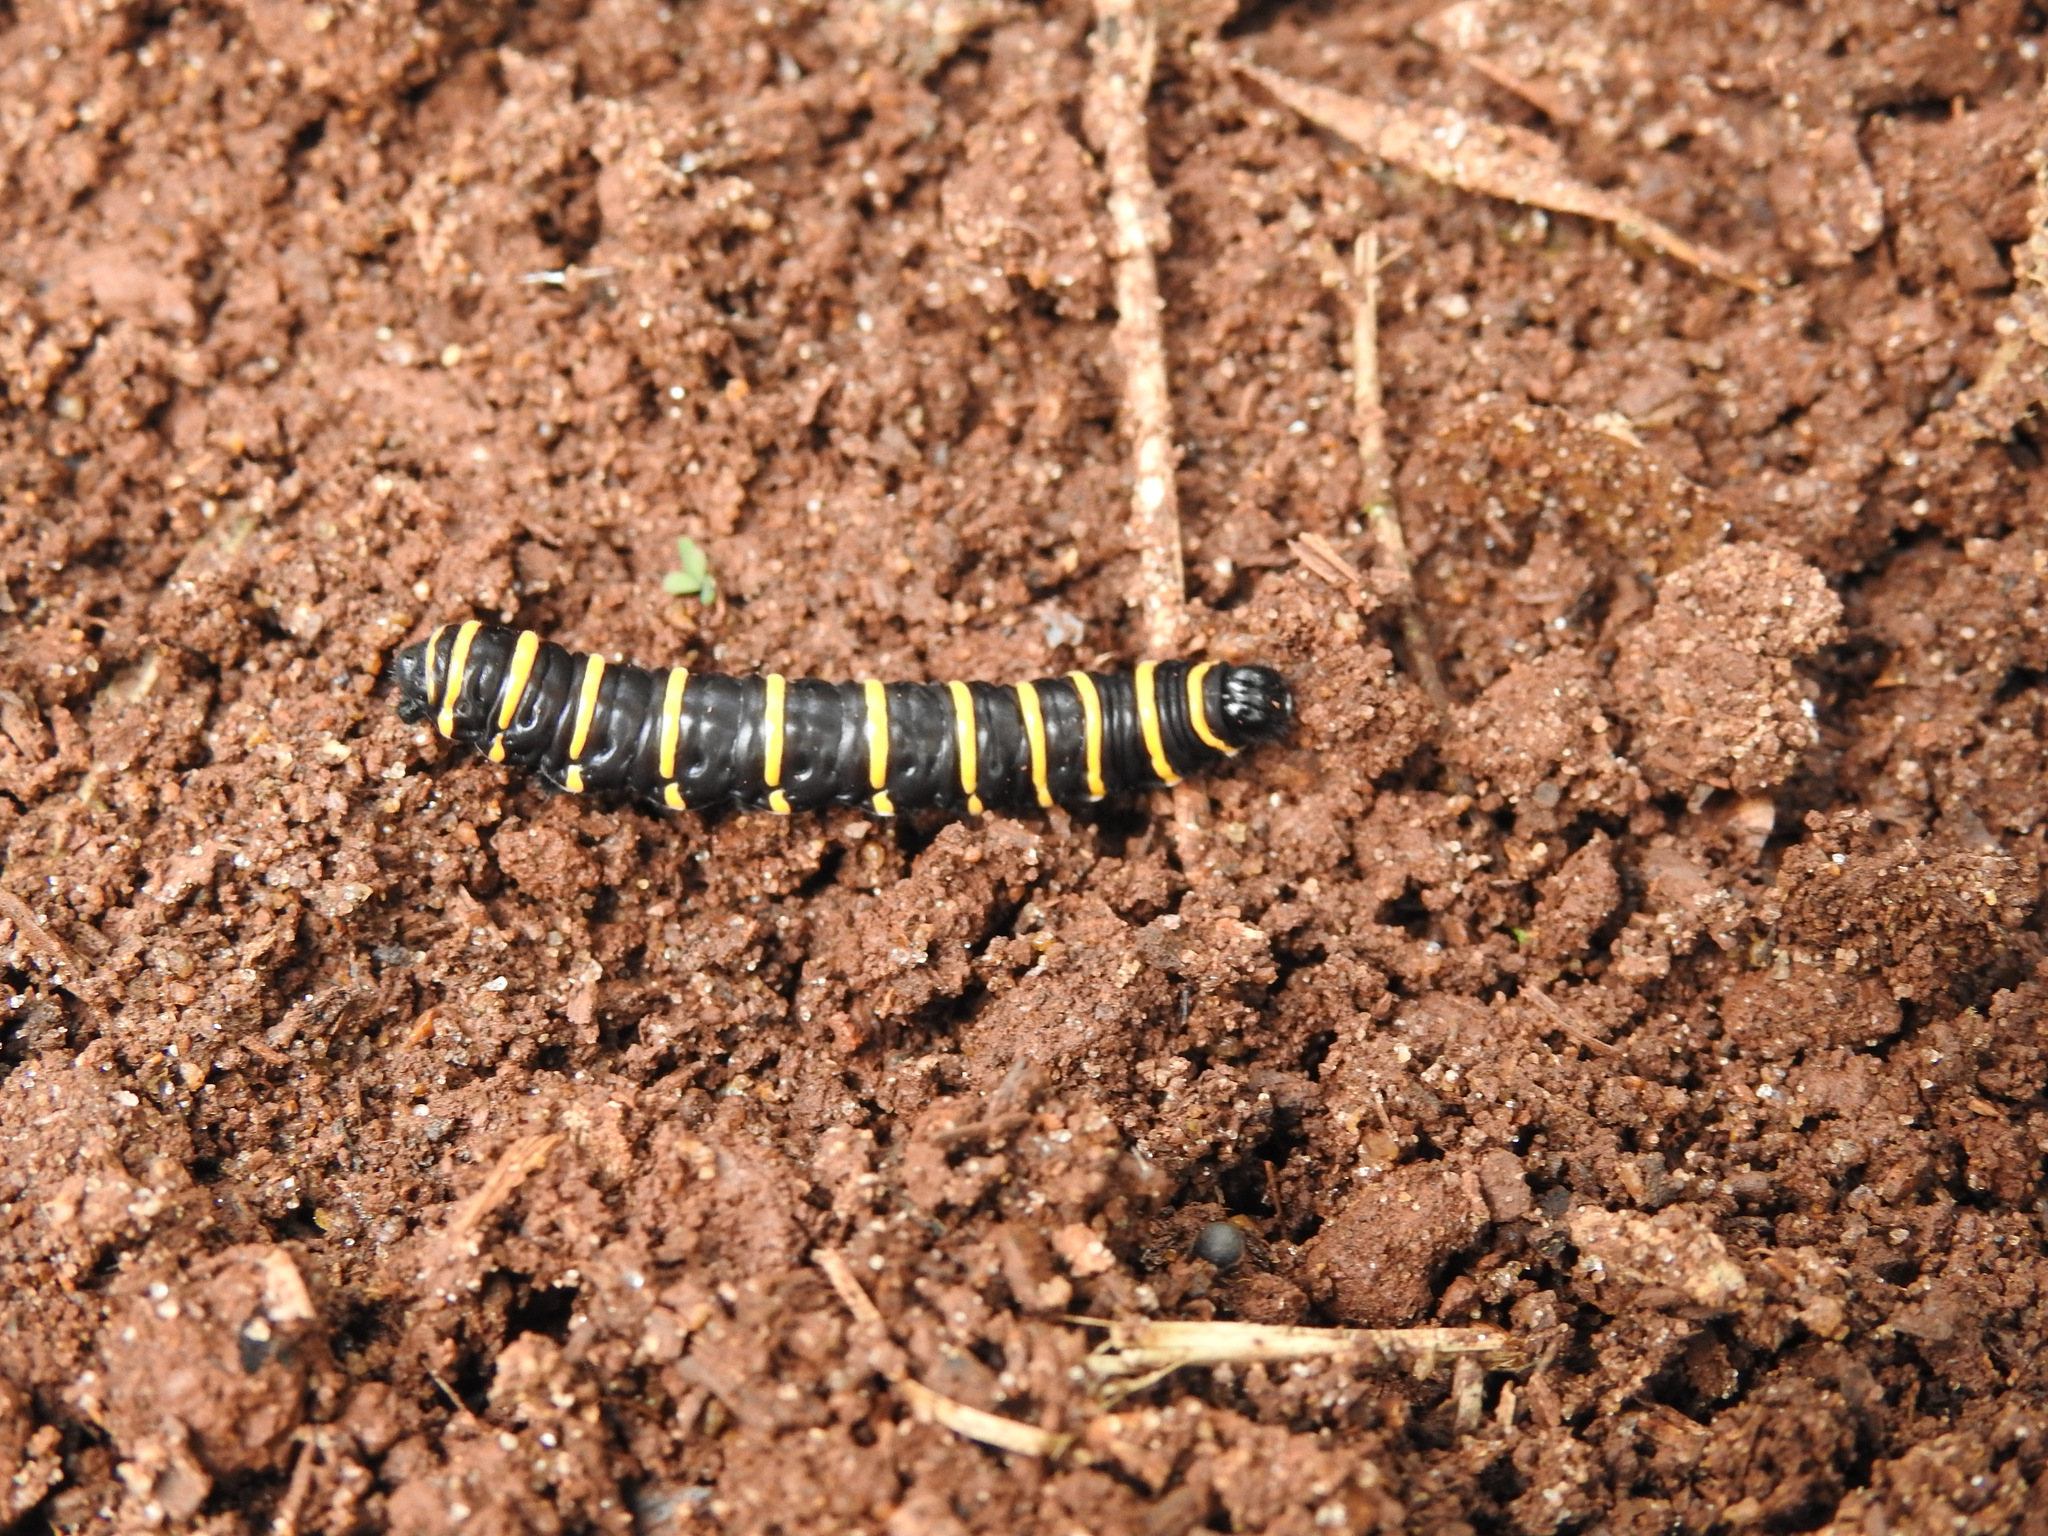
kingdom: Animalia
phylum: Arthropoda
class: Insecta
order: Lepidoptera
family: Nymphalidae
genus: Methona
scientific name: Methona themisto
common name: Themisto amberwing
